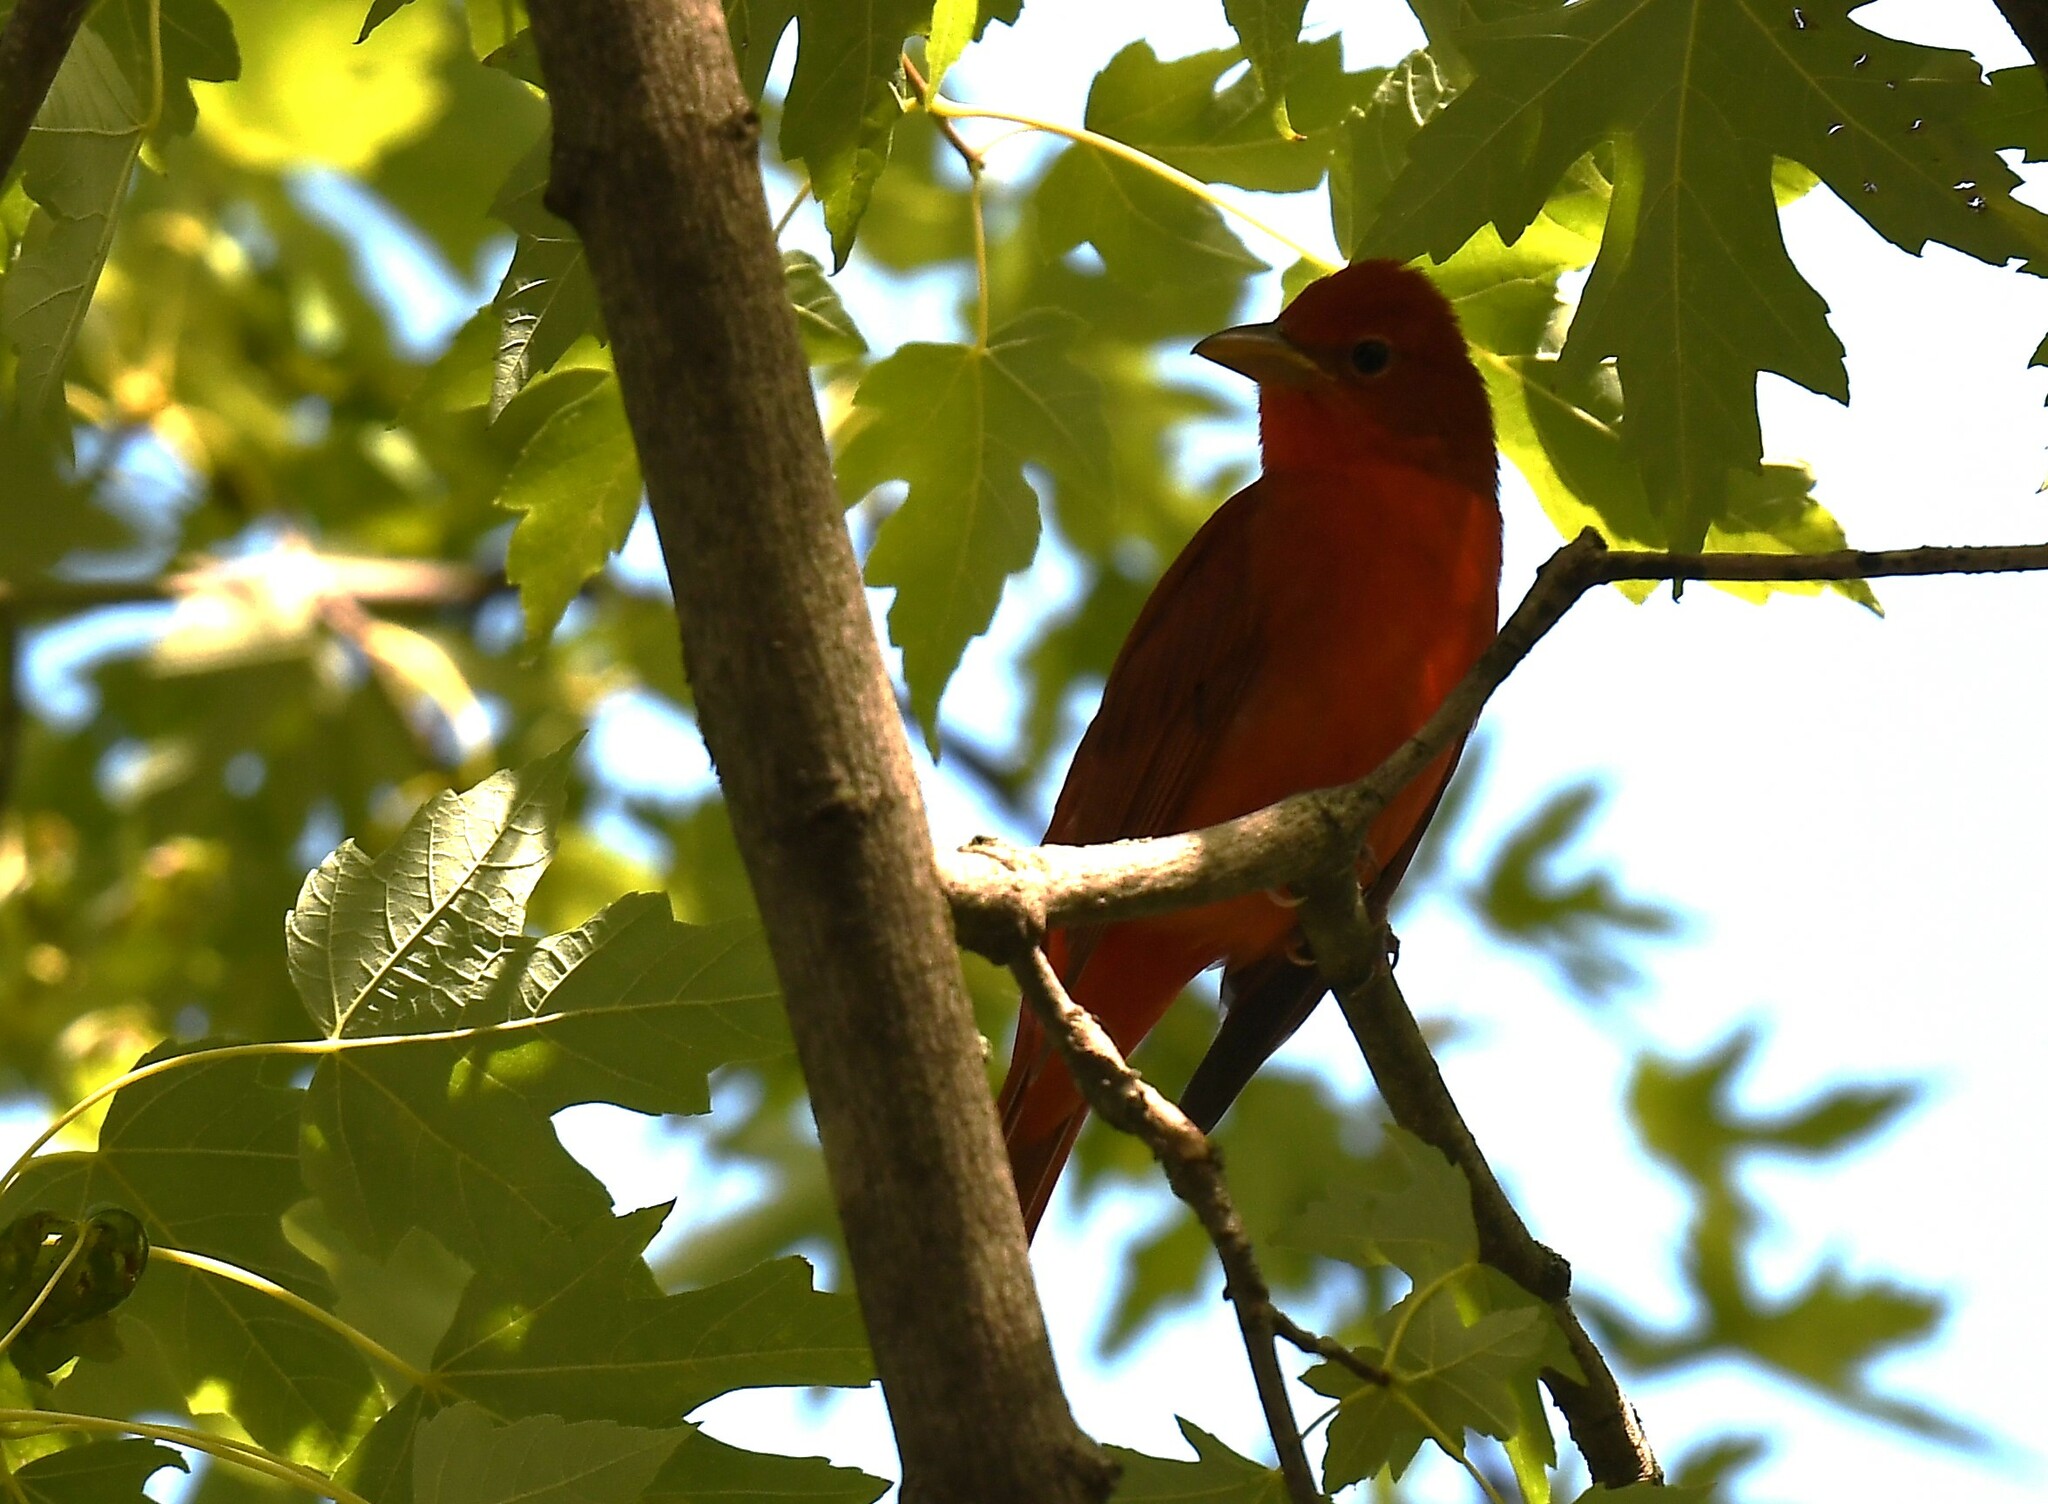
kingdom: Animalia
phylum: Chordata
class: Aves
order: Passeriformes
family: Cardinalidae
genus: Piranga
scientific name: Piranga rubra
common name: Summer tanager
